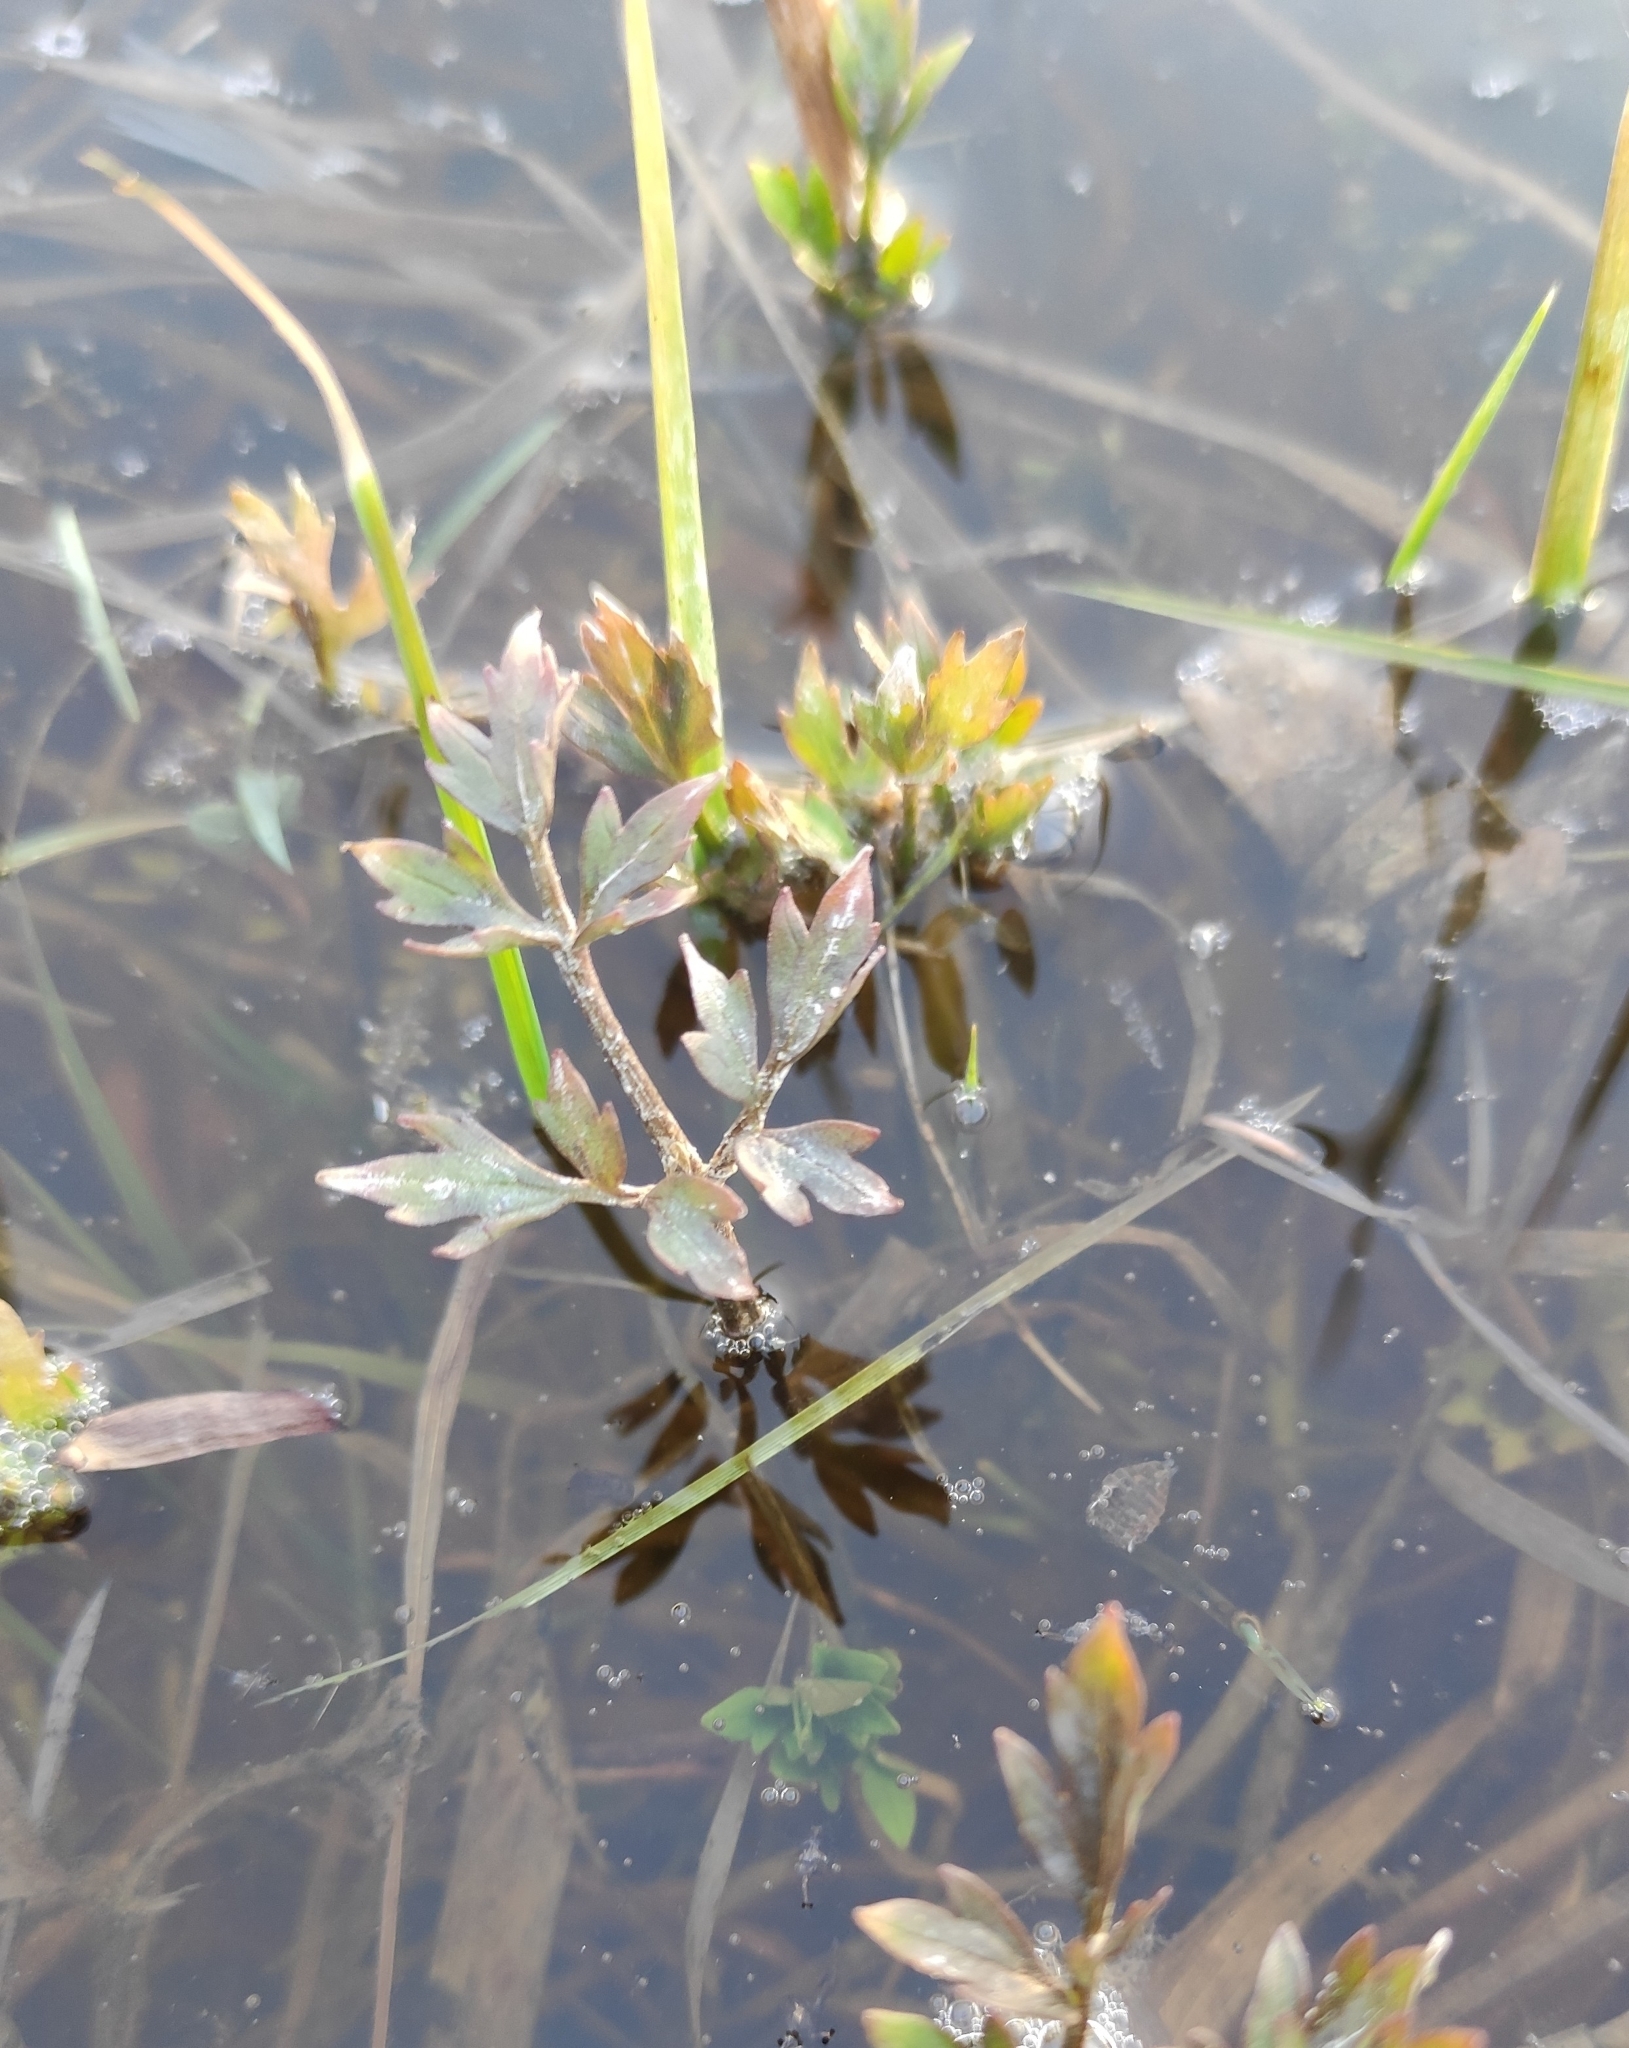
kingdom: Plantae
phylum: Tracheophyta
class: Magnoliopsida
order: Ranunculales
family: Ranunculaceae
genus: Ranunculus
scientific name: Ranunculus repens
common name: Creeping buttercup
